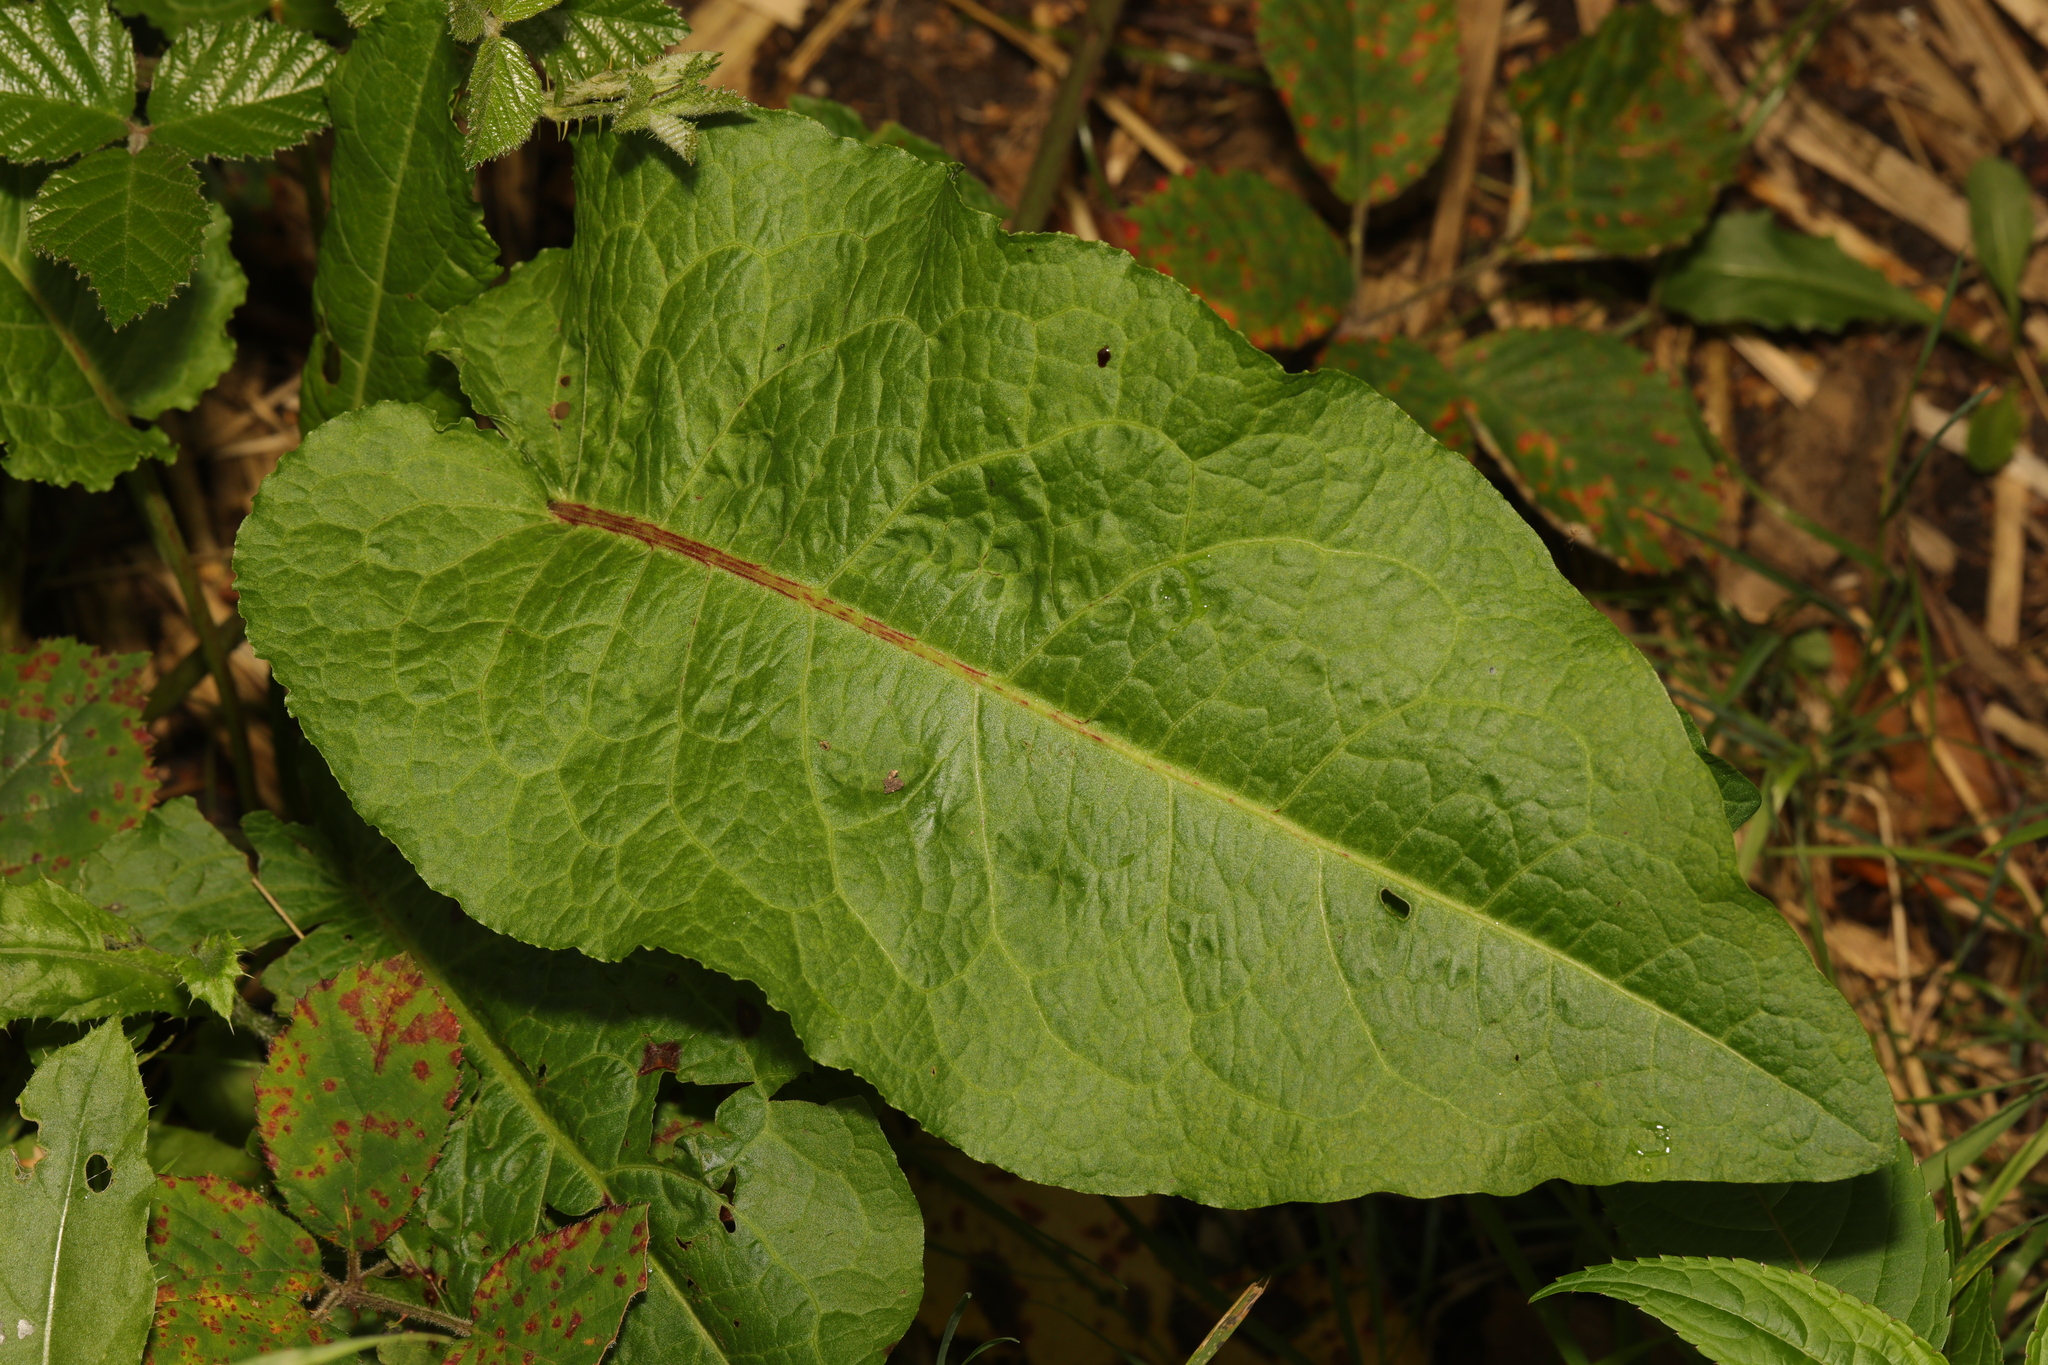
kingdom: Plantae
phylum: Tracheophyta
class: Magnoliopsida
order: Caryophyllales
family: Polygonaceae
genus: Rumex
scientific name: Rumex obtusifolius
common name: Bitter dock
